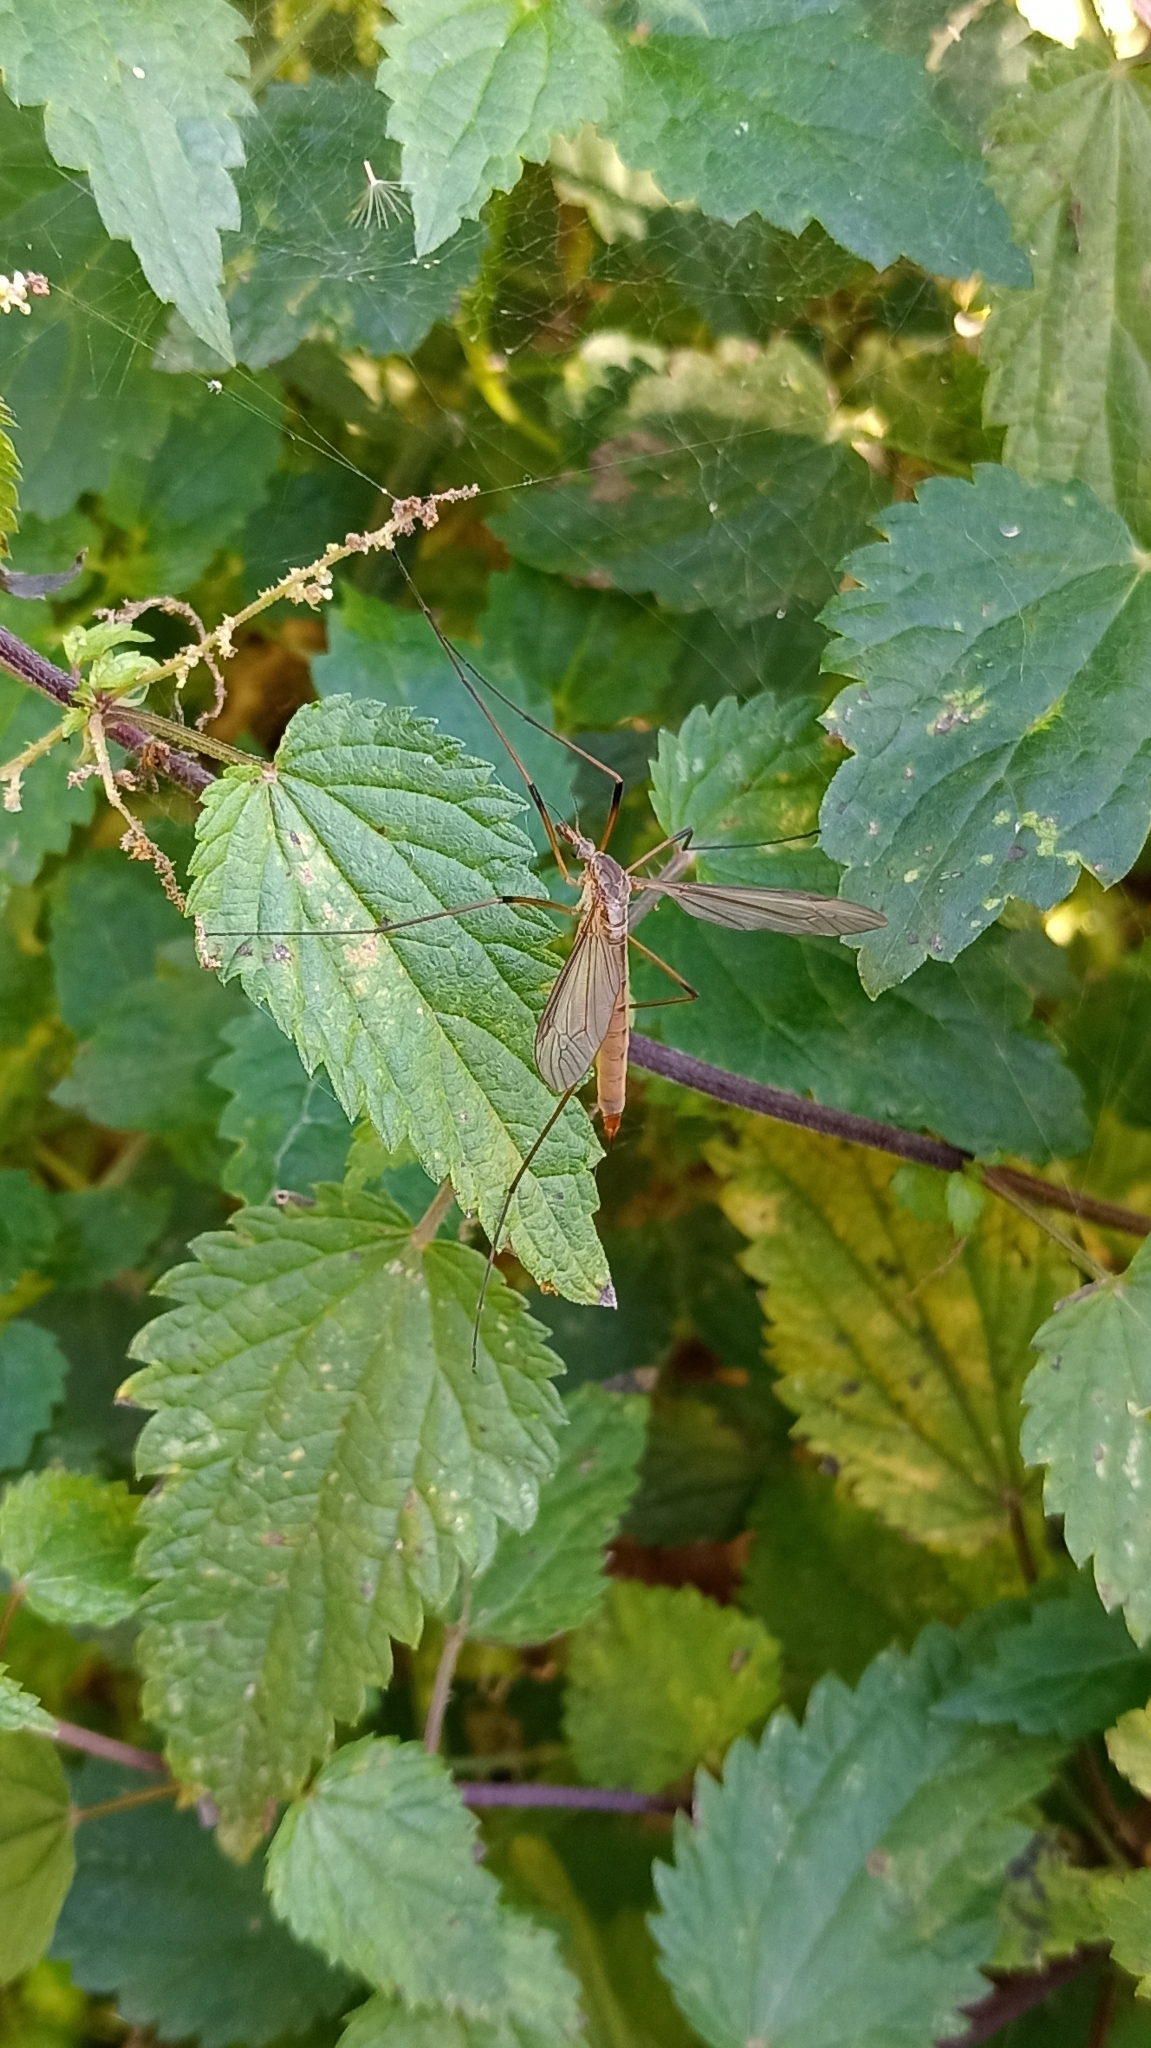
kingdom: Animalia
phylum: Arthropoda
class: Insecta
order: Diptera
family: Tipulidae
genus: Tipula
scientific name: Tipula paludosa
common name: European cranefly
